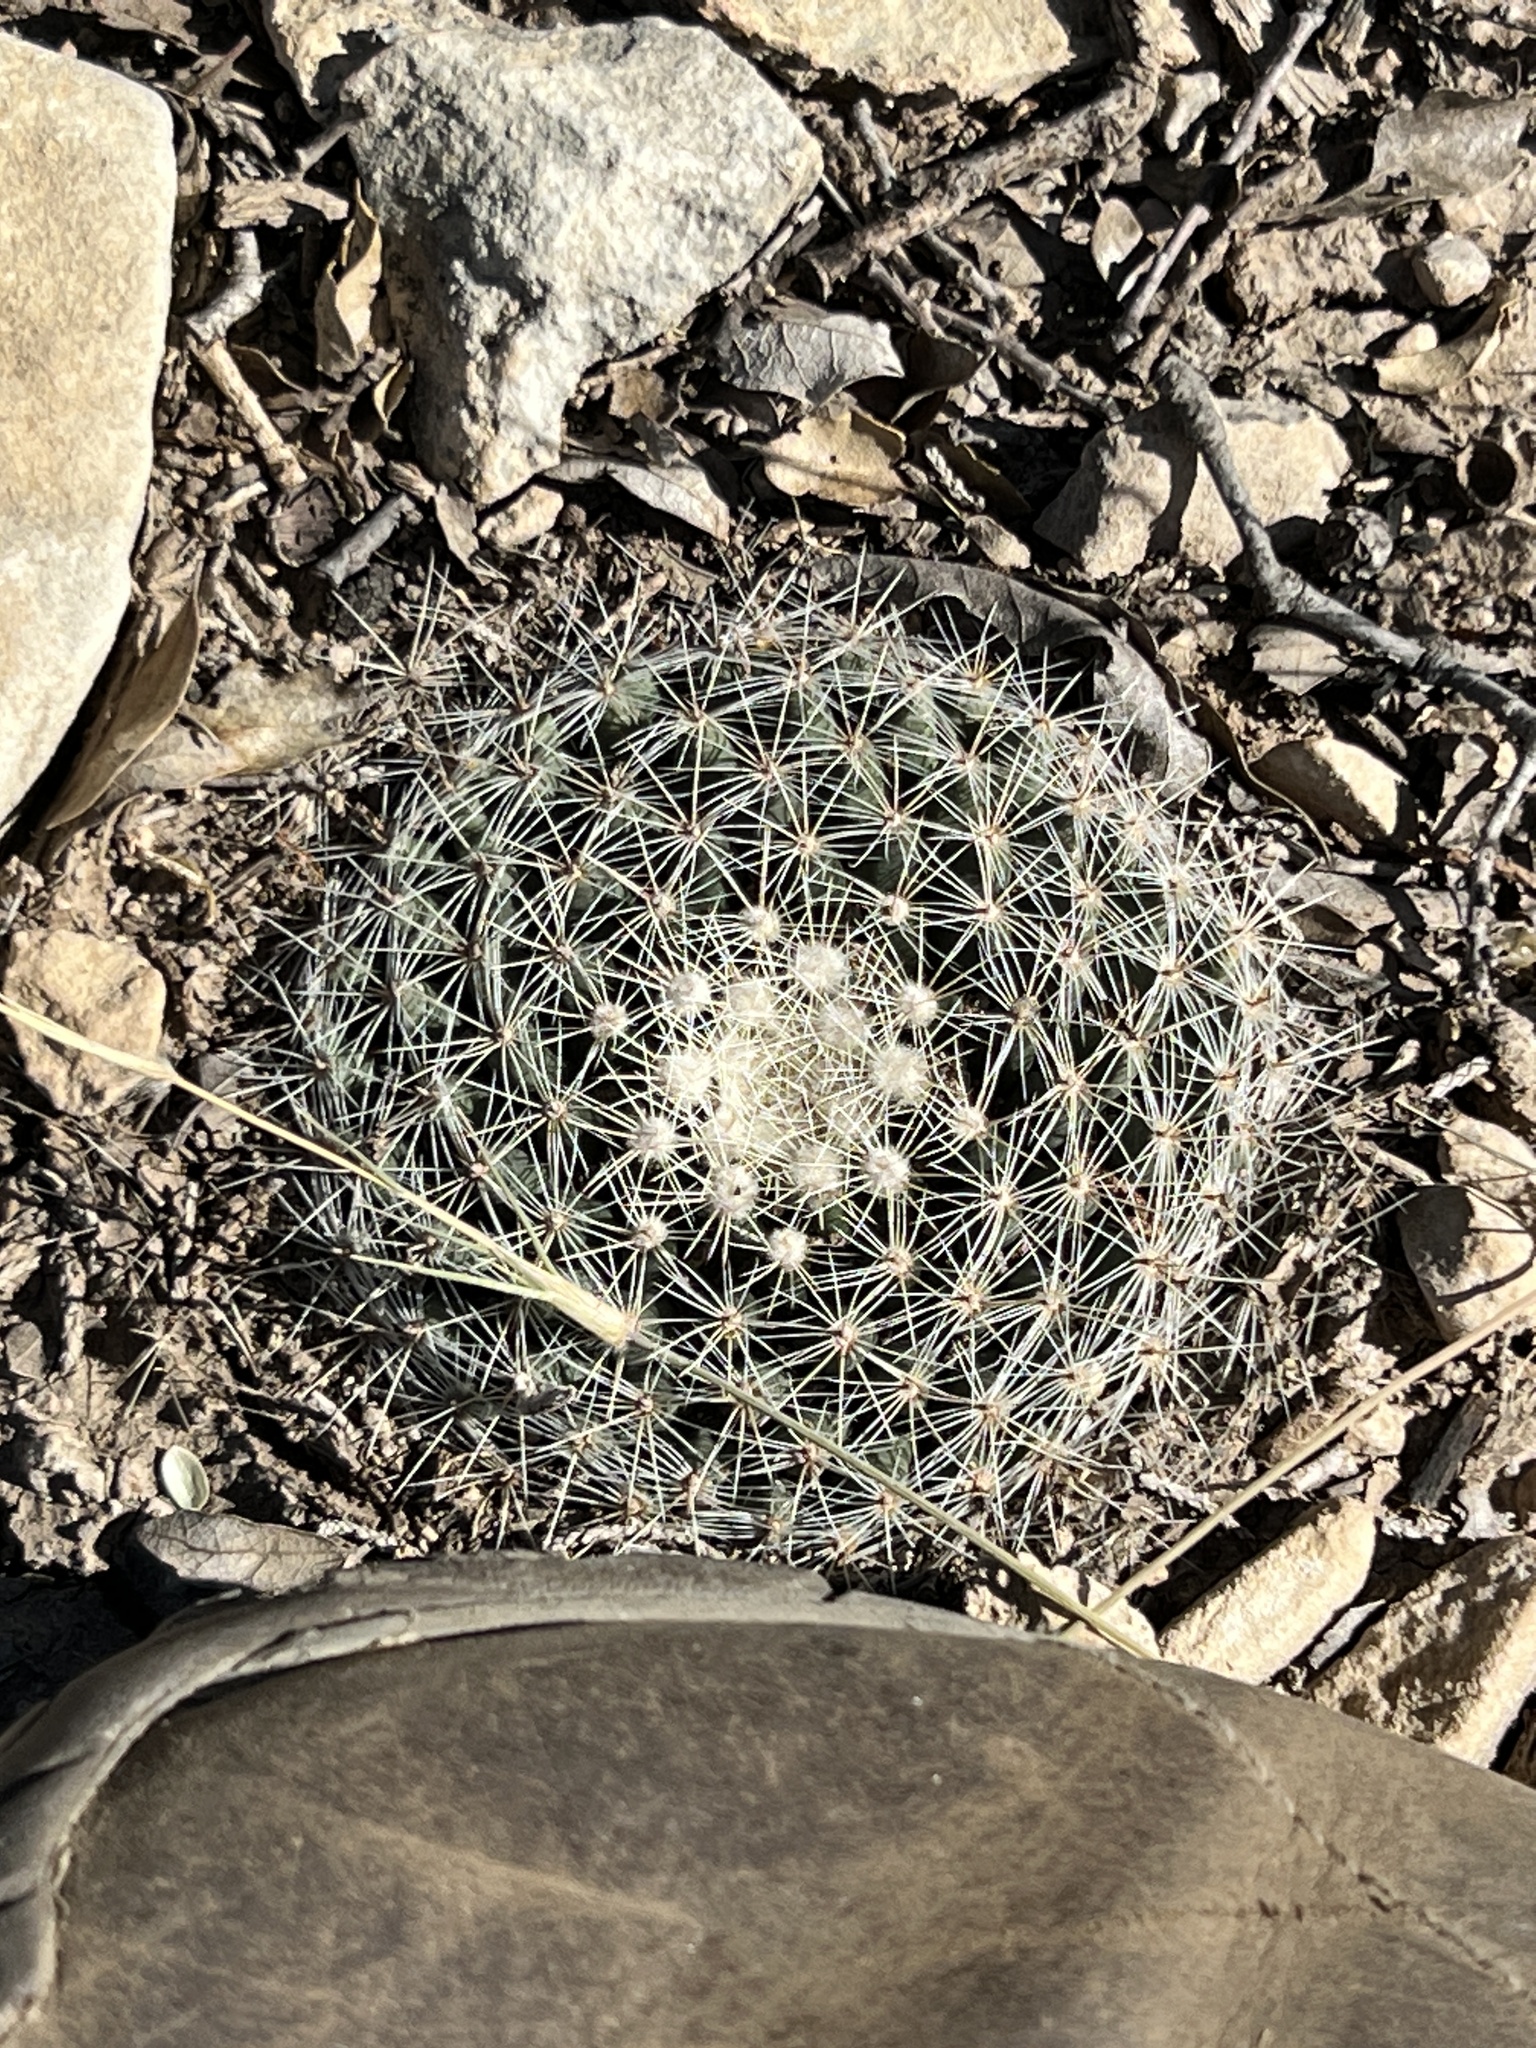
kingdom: Plantae
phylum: Tracheophyta
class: Magnoliopsida
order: Caryophyllales
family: Cactaceae
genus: Mammillaria
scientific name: Mammillaria heyderi
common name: Little nipple cactus
